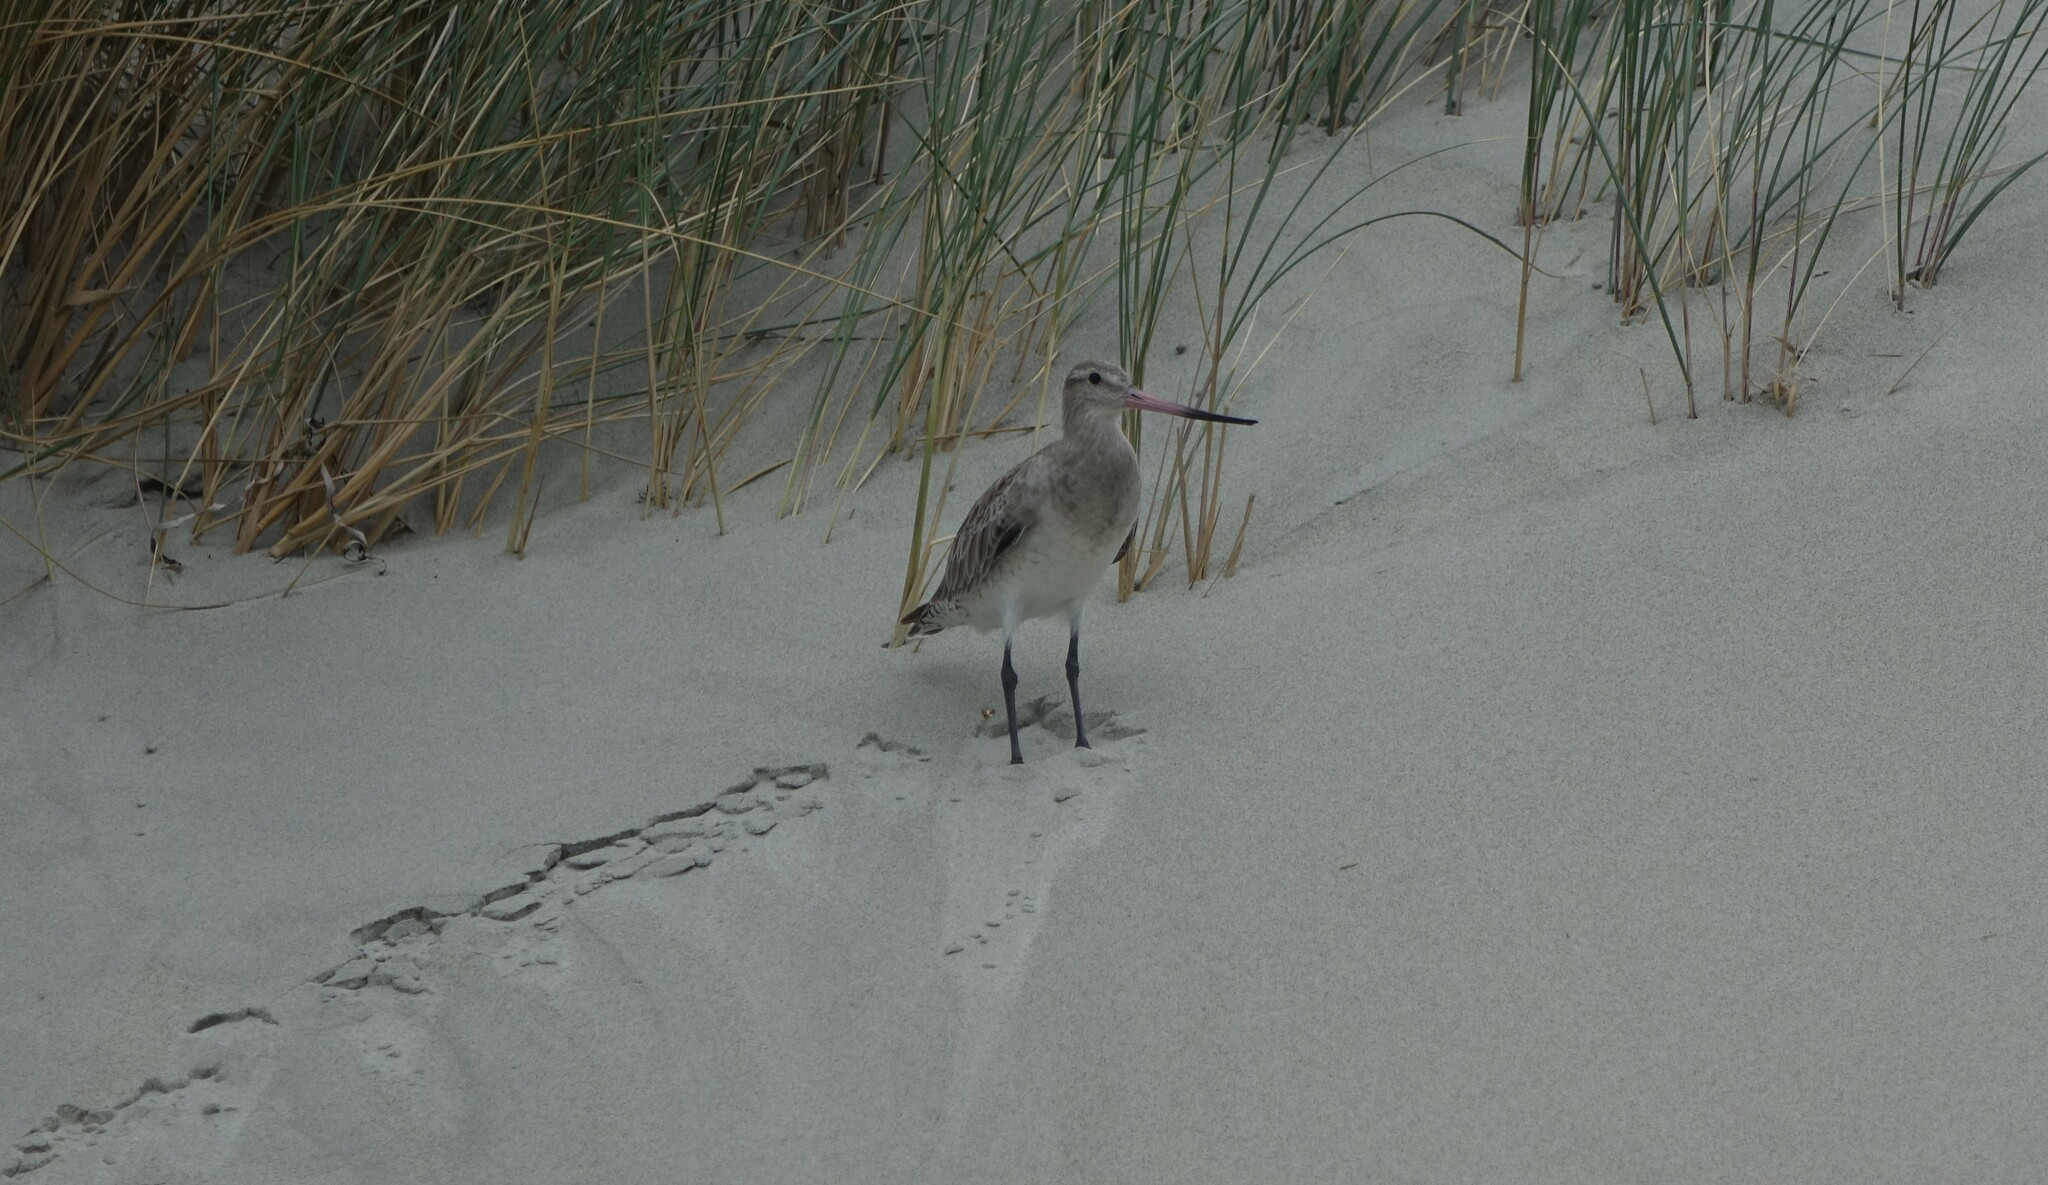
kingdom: Animalia
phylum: Chordata
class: Aves
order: Charadriiformes
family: Scolopacidae
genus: Limosa
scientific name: Limosa lapponica
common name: Bar-tailed godwit
